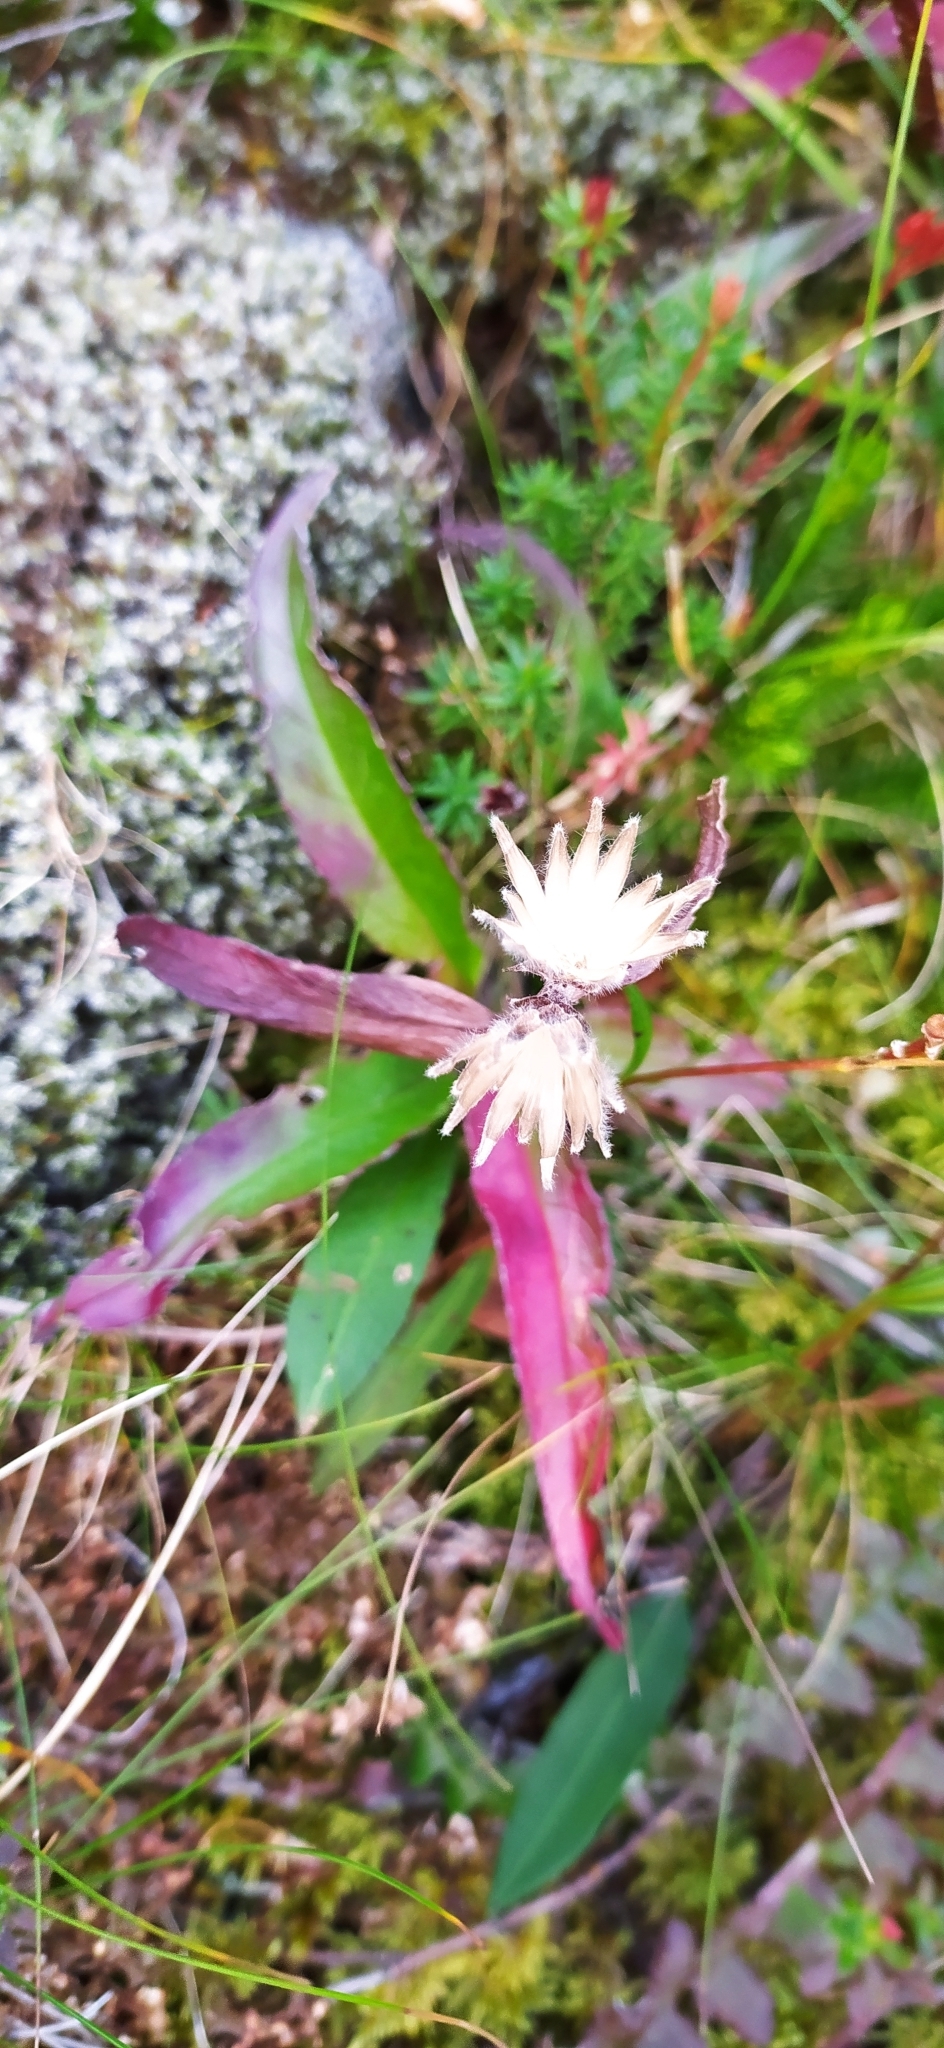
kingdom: Plantae
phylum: Tracheophyta
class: Magnoliopsida
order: Asterales
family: Asteraceae
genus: Saussurea
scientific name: Saussurea alpina
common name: Alpine saw-wort
